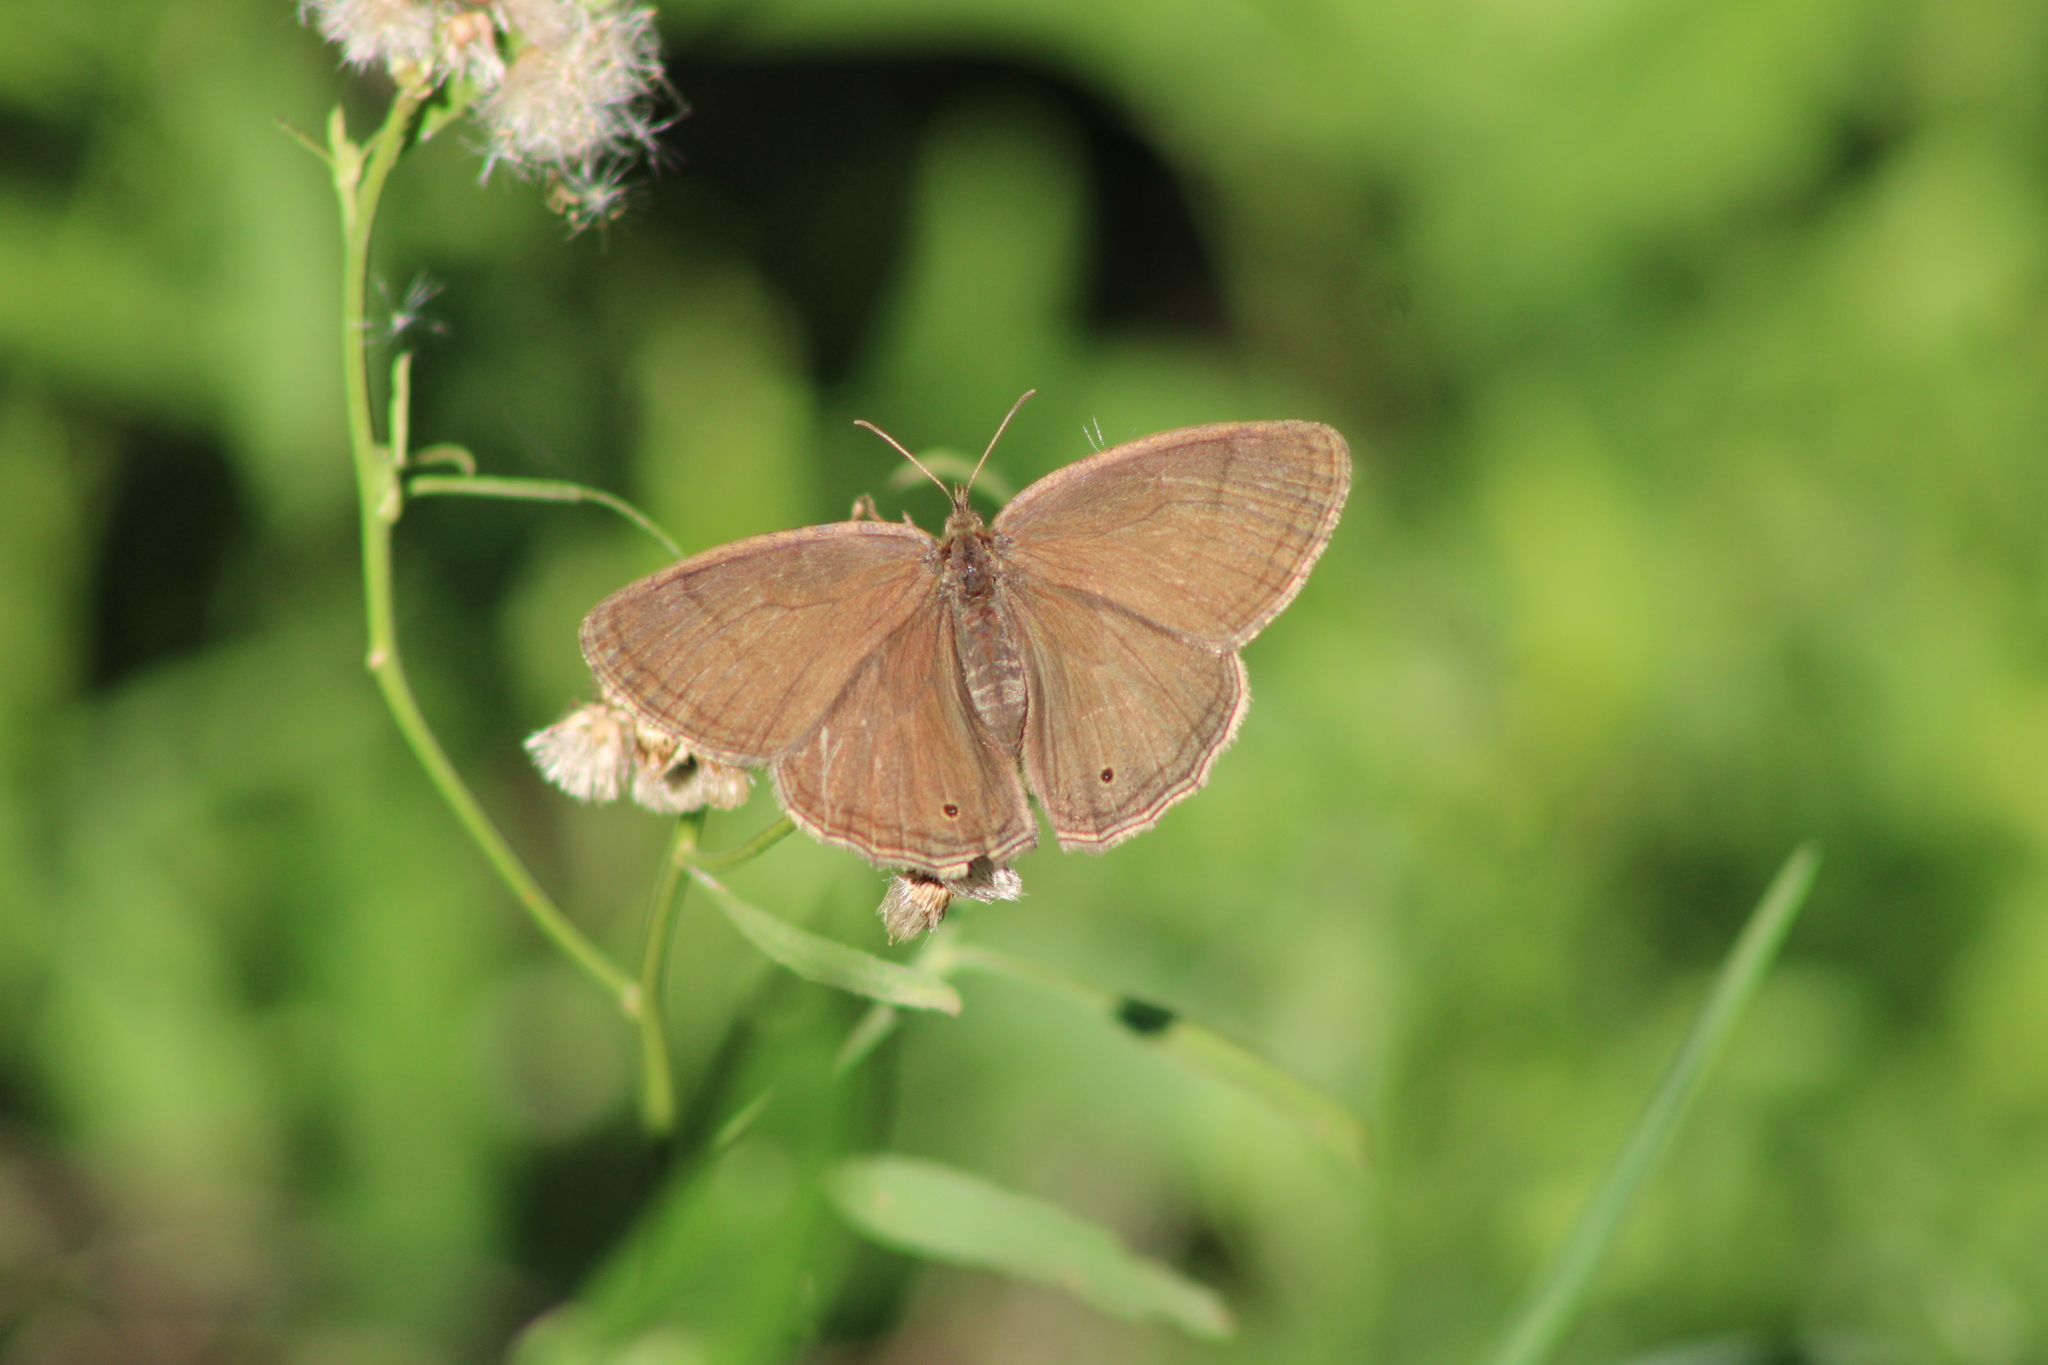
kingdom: Animalia
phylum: Arthropoda
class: Insecta
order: Lepidoptera
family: Nymphalidae
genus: Yphthimoides
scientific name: Yphthimoides celmis
